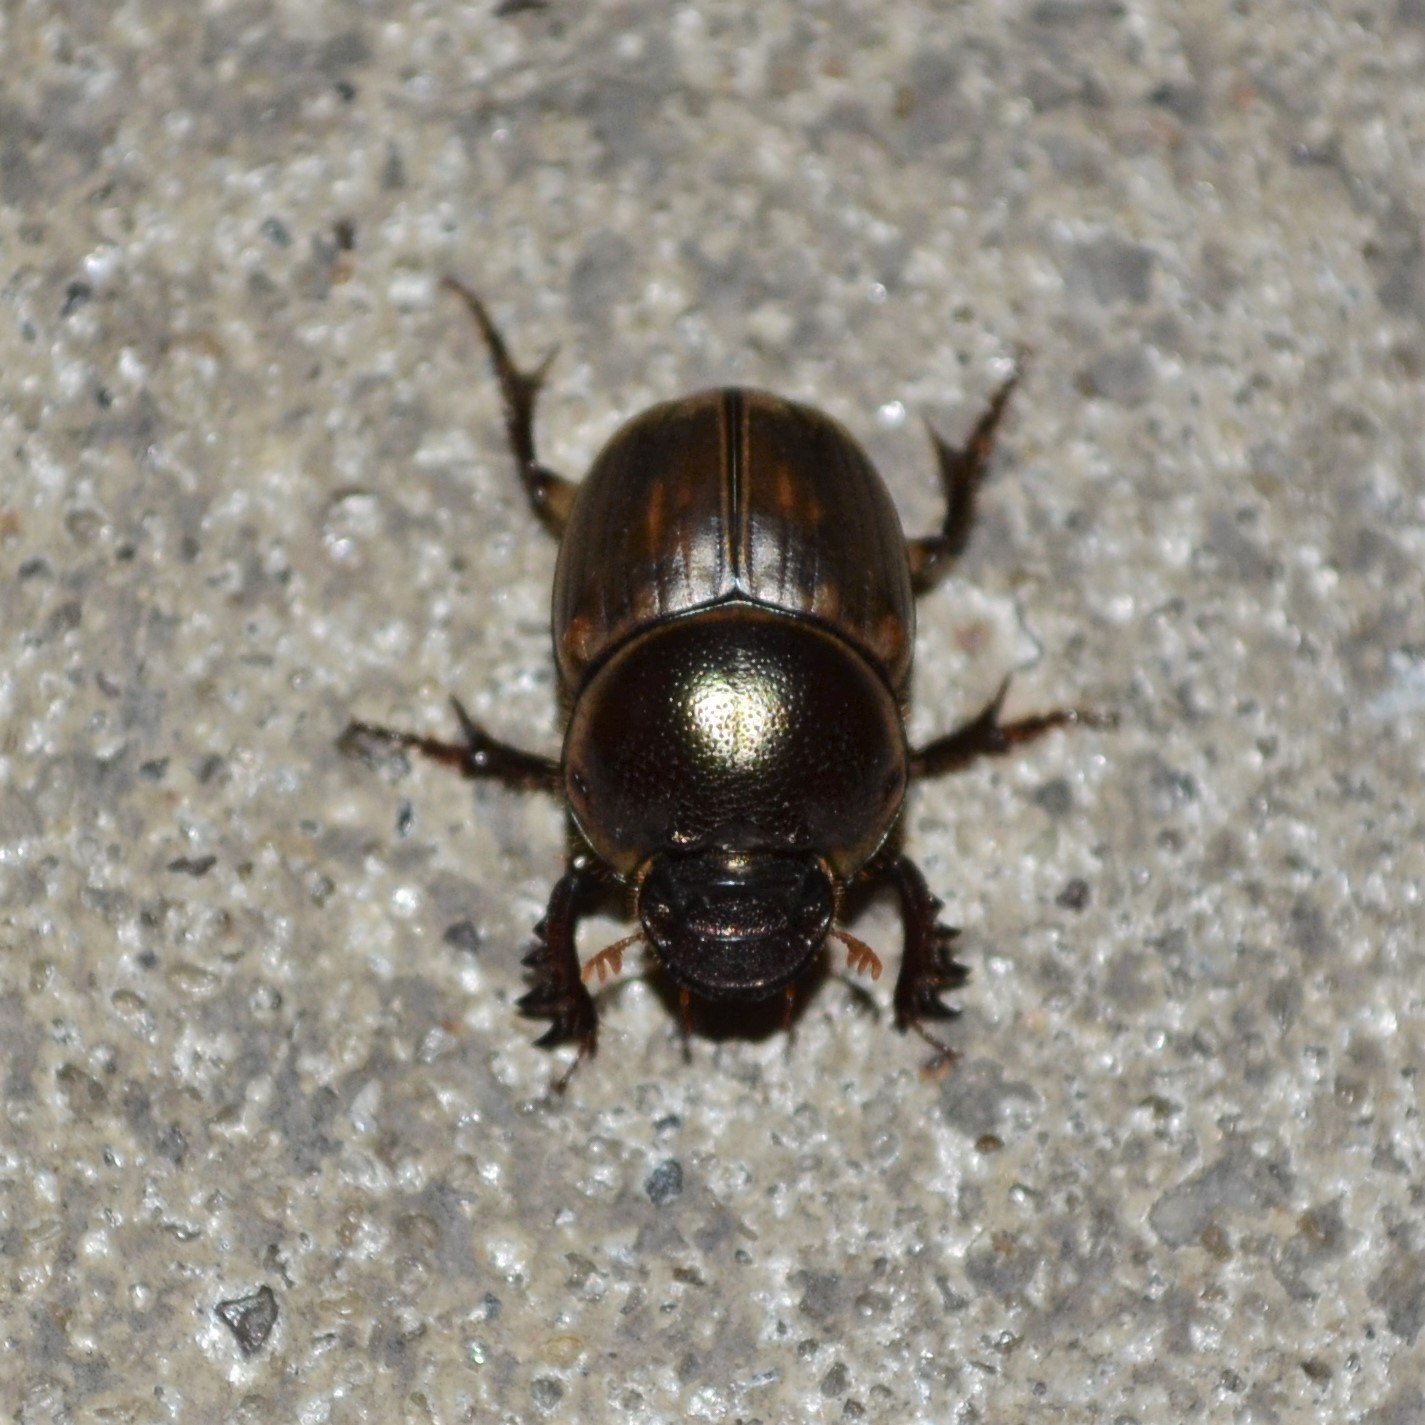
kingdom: Animalia
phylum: Arthropoda
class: Insecta
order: Coleoptera
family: Scarabaeidae
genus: Digitonthophagus
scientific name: Digitonthophagus gazella
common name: Brown dung beetle
